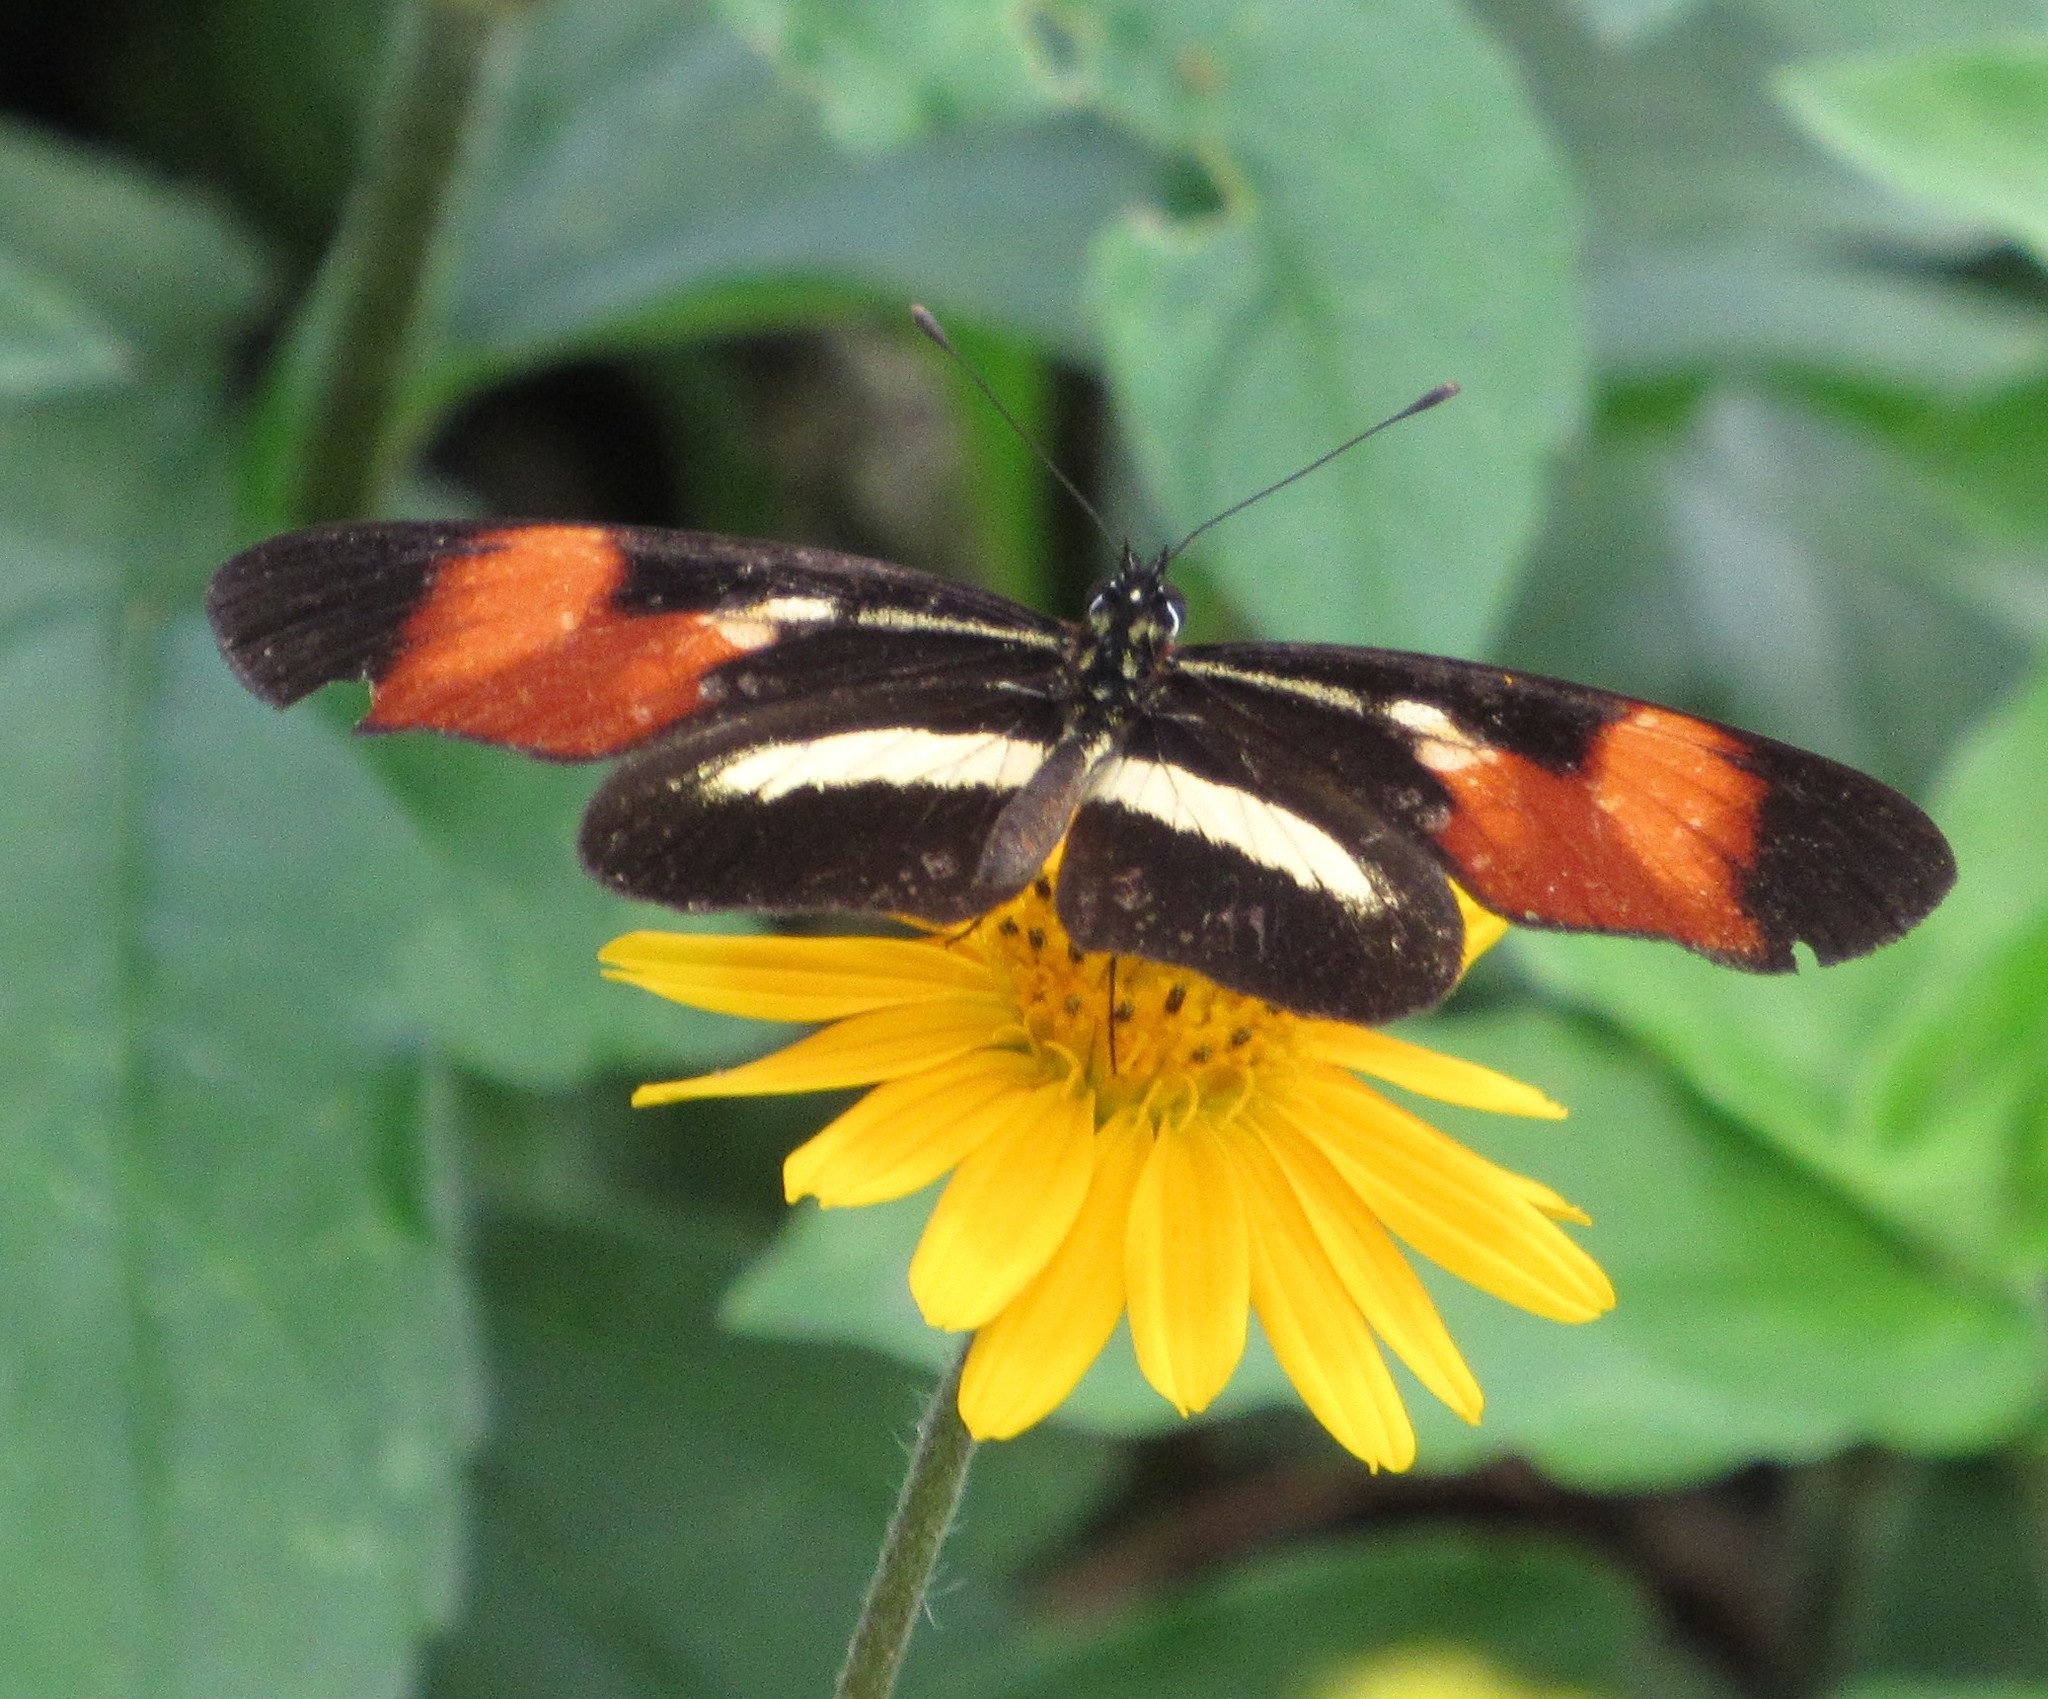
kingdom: Animalia
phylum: Arthropoda
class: Insecta
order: Lepidoptera
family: Nymphalidae
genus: Eresia
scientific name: Eresia lansdorfi
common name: Lansdorf's crescent
